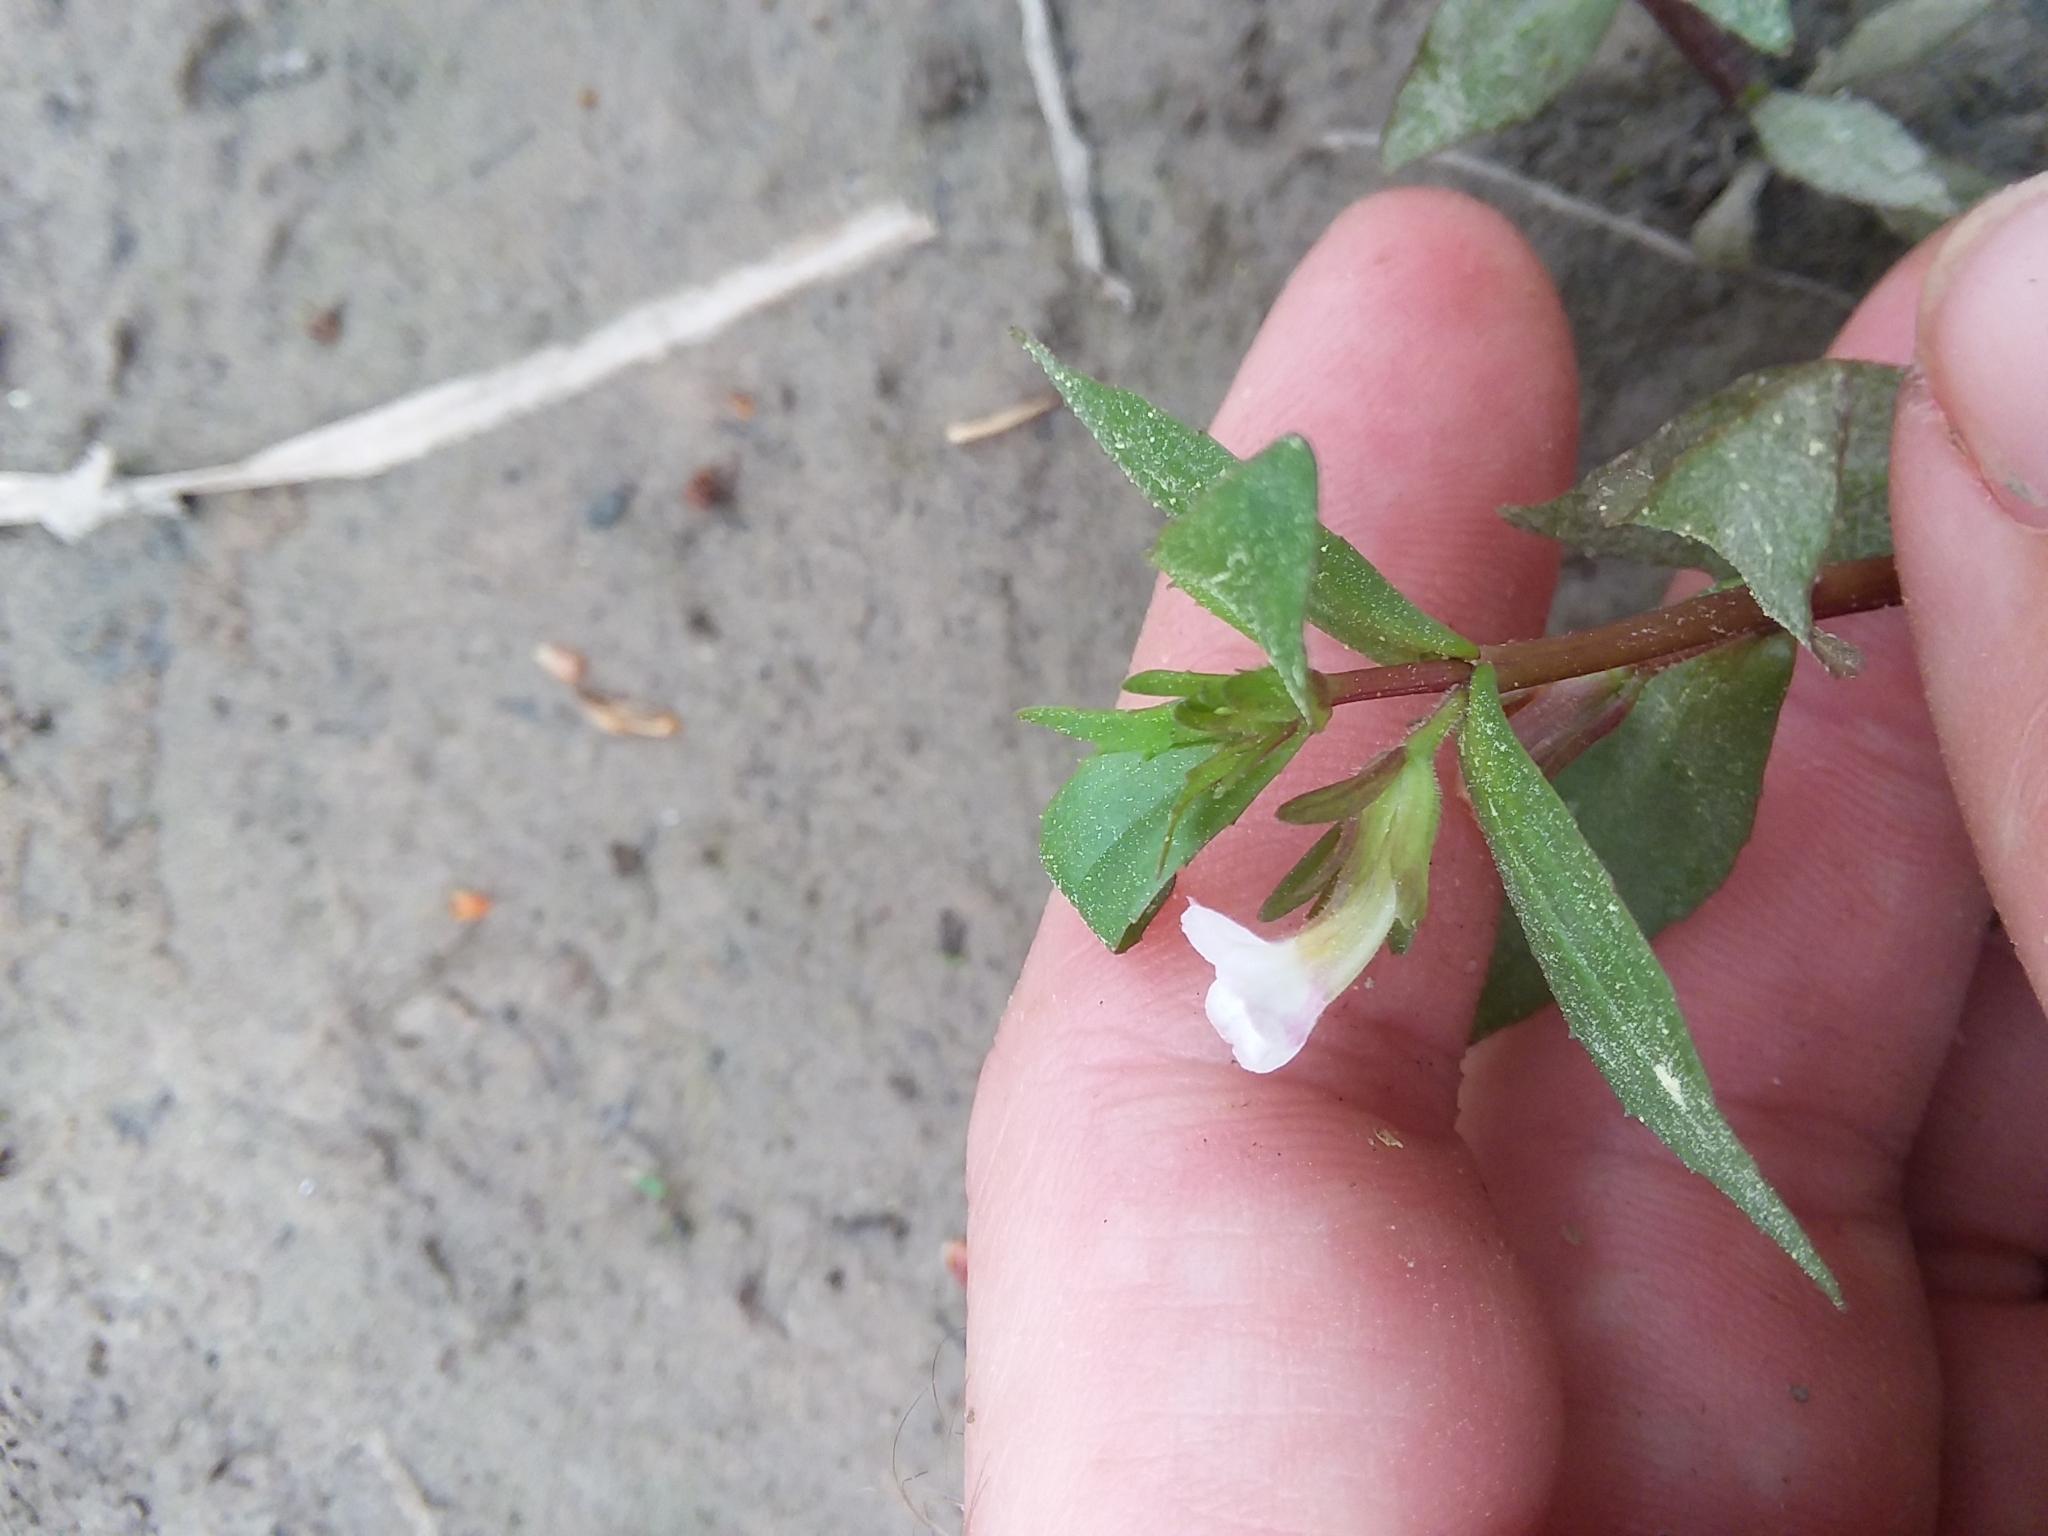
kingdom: Plantae
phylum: Tracheophyta
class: Magnoliopsida
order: Lamiales
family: Plantaginaceae
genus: Gratiola
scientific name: Gratiola virginiana
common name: Roundfruit hedgehyssop
